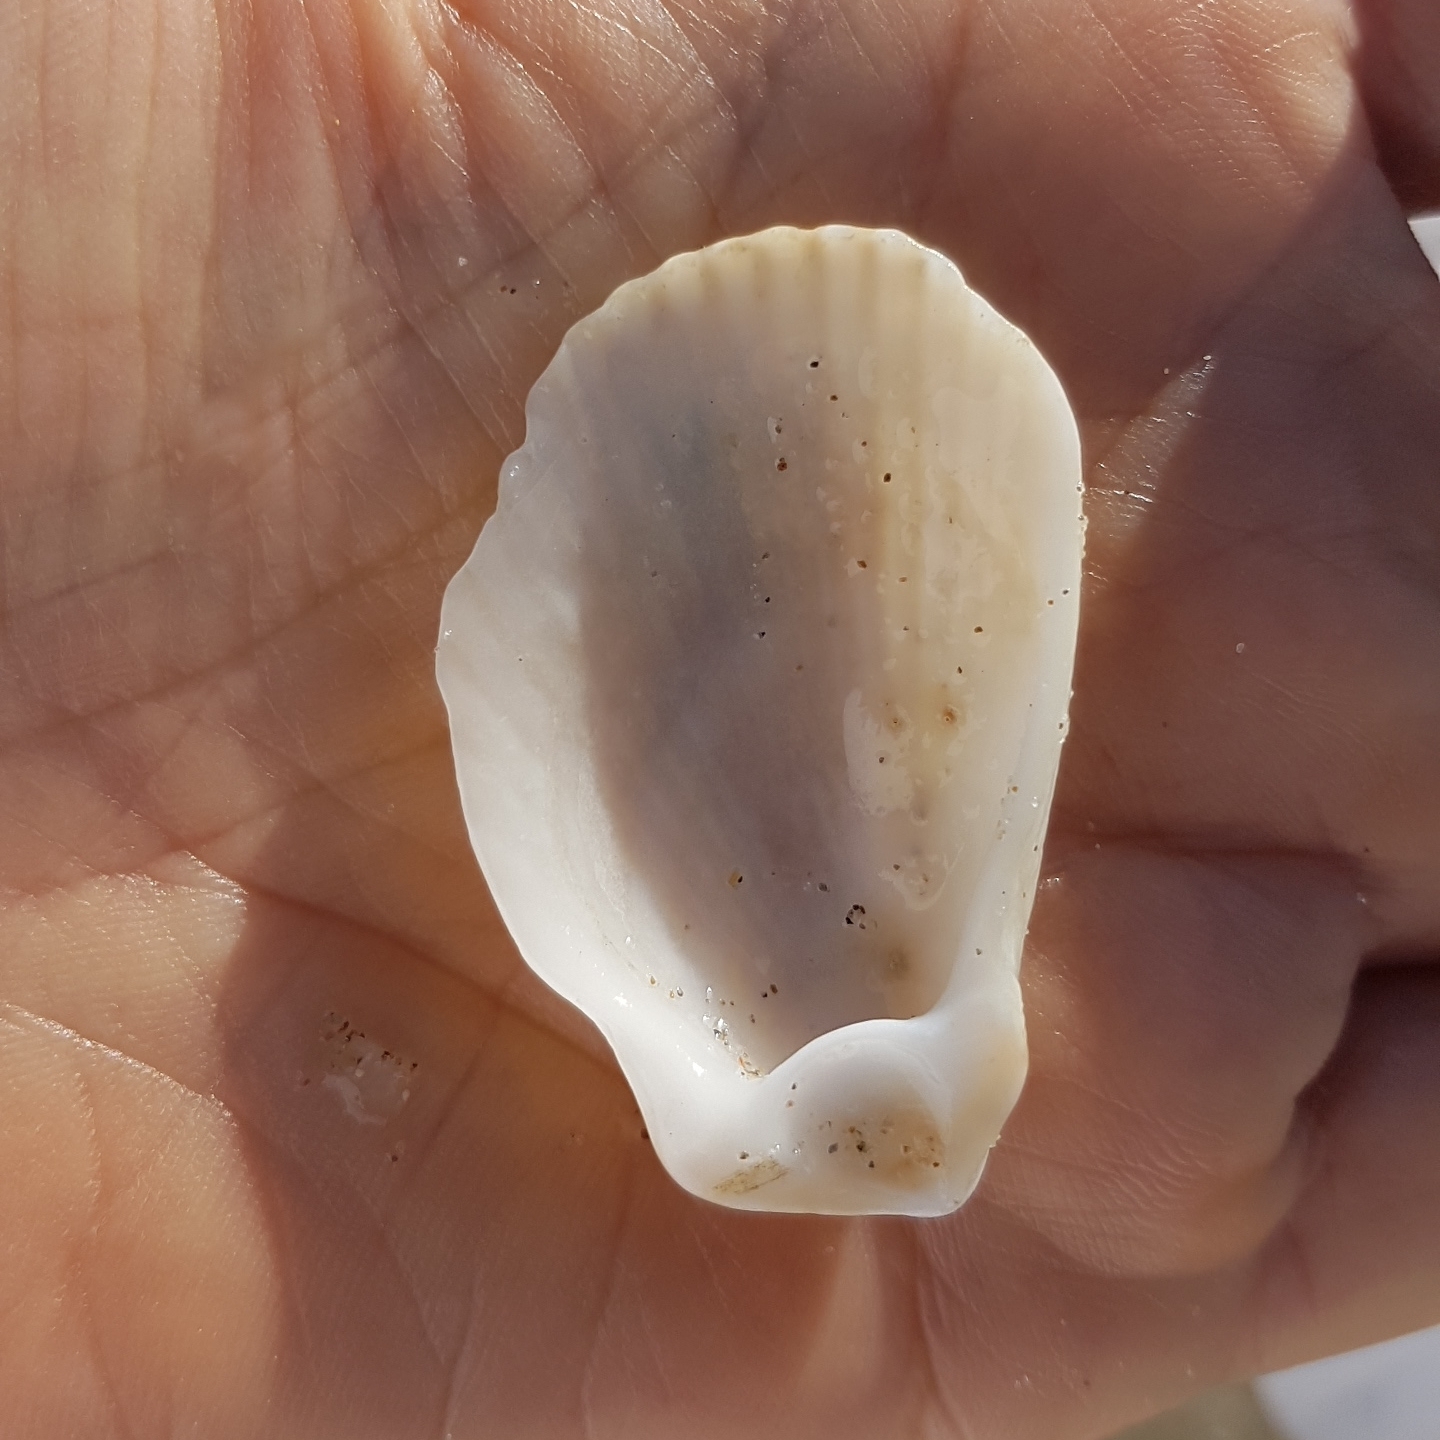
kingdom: Animalia
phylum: Mollusca
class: Bivalvia
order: Limida
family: Limidae
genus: Lima
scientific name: Lima lima
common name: Frilled file shell
